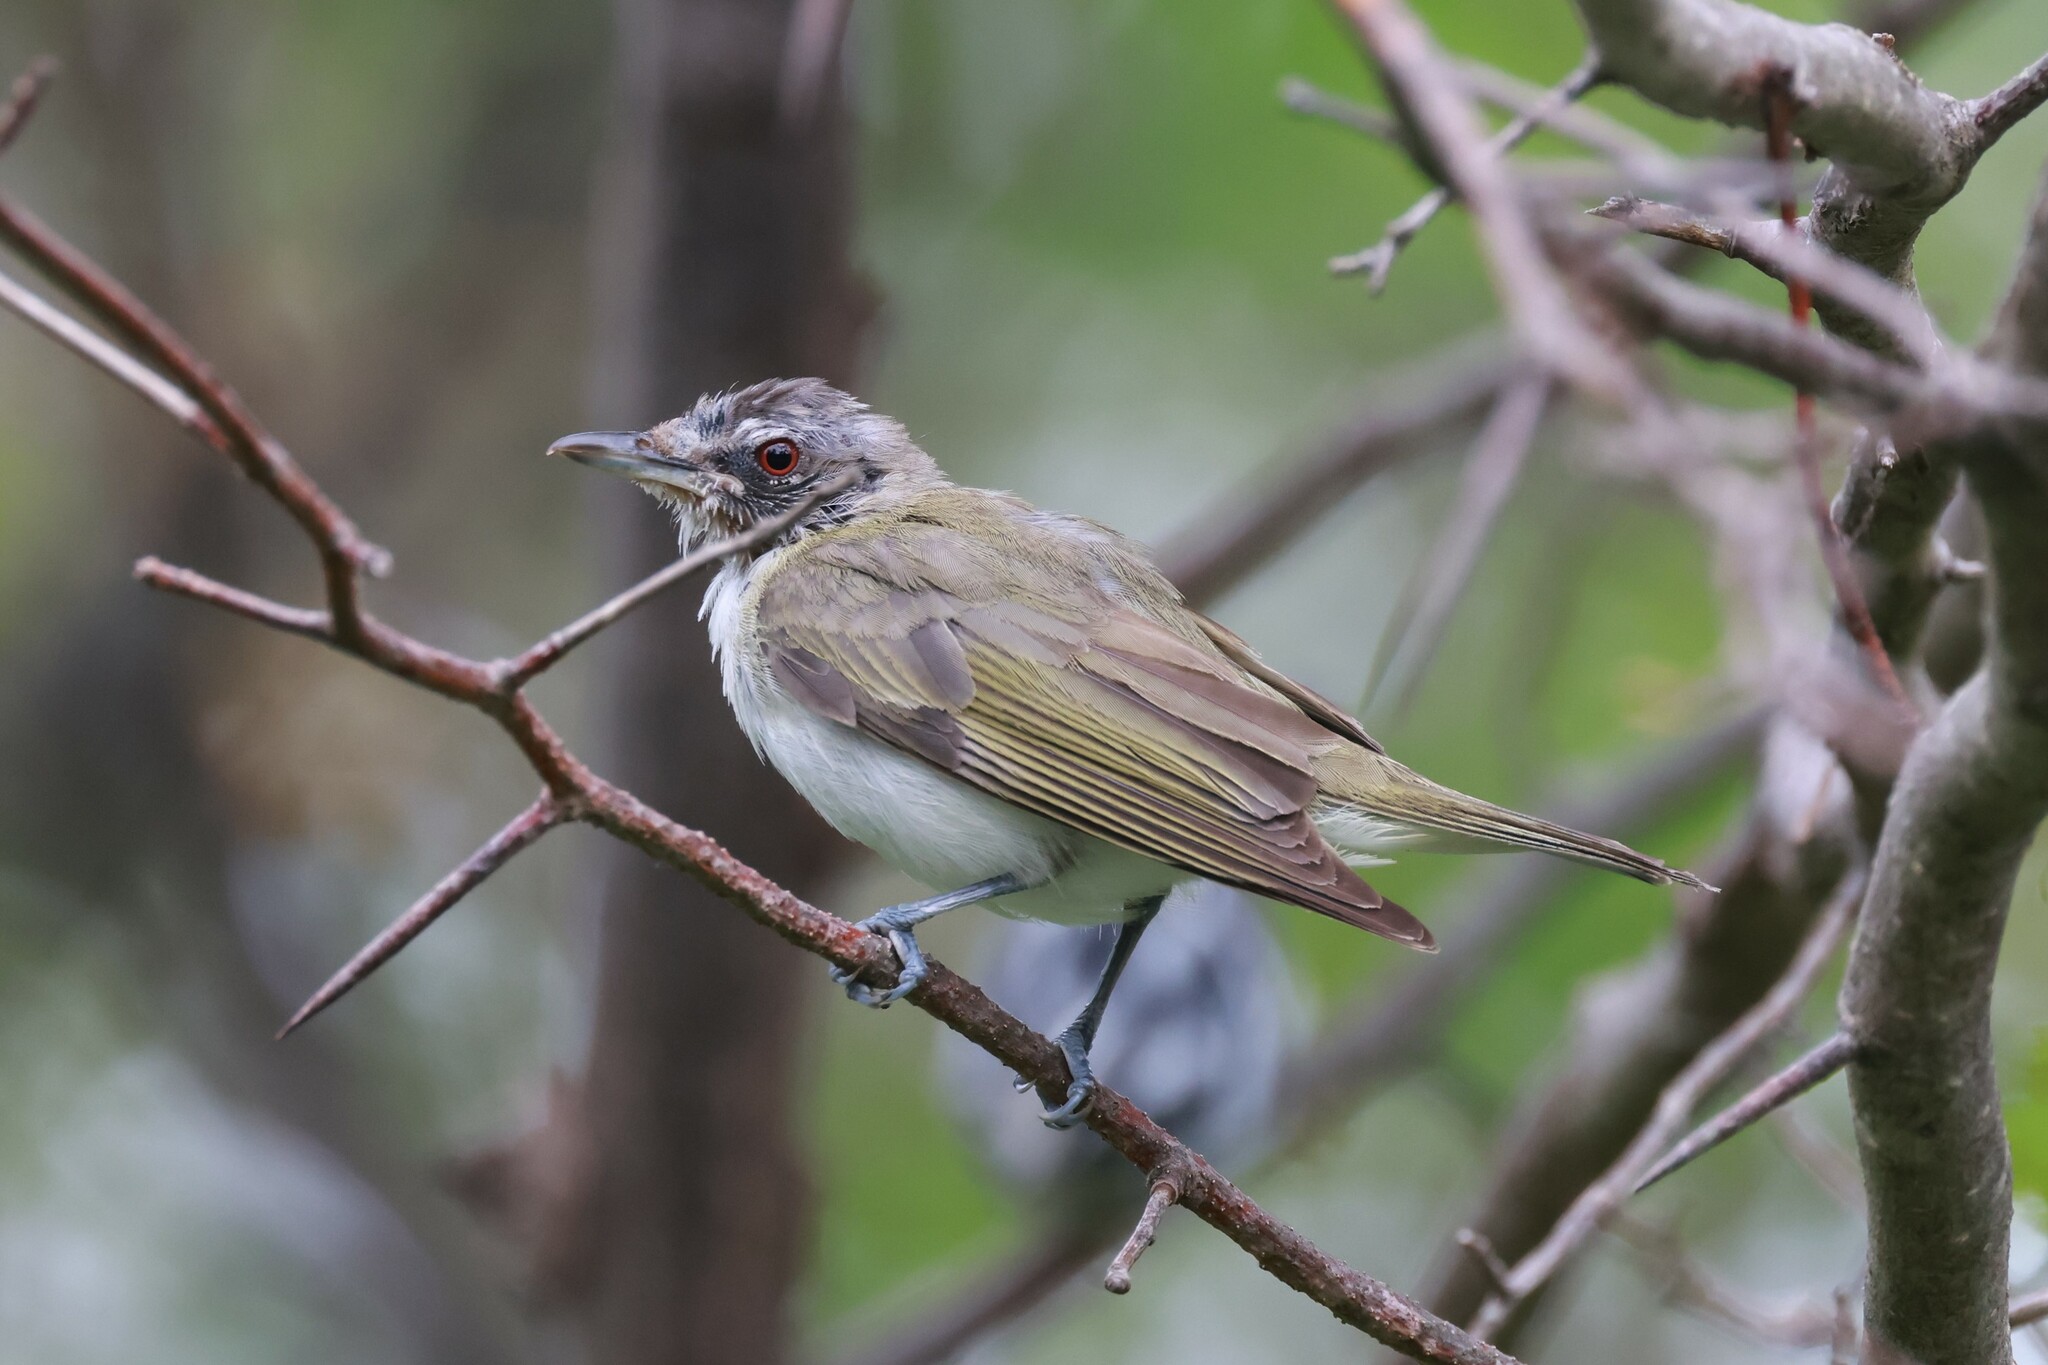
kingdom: Animalia
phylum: Chordata
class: Aves
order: Passeriformes
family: Vireonidae
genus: Vireo
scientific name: Vireo olivaceus
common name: Red-eyed vireo
